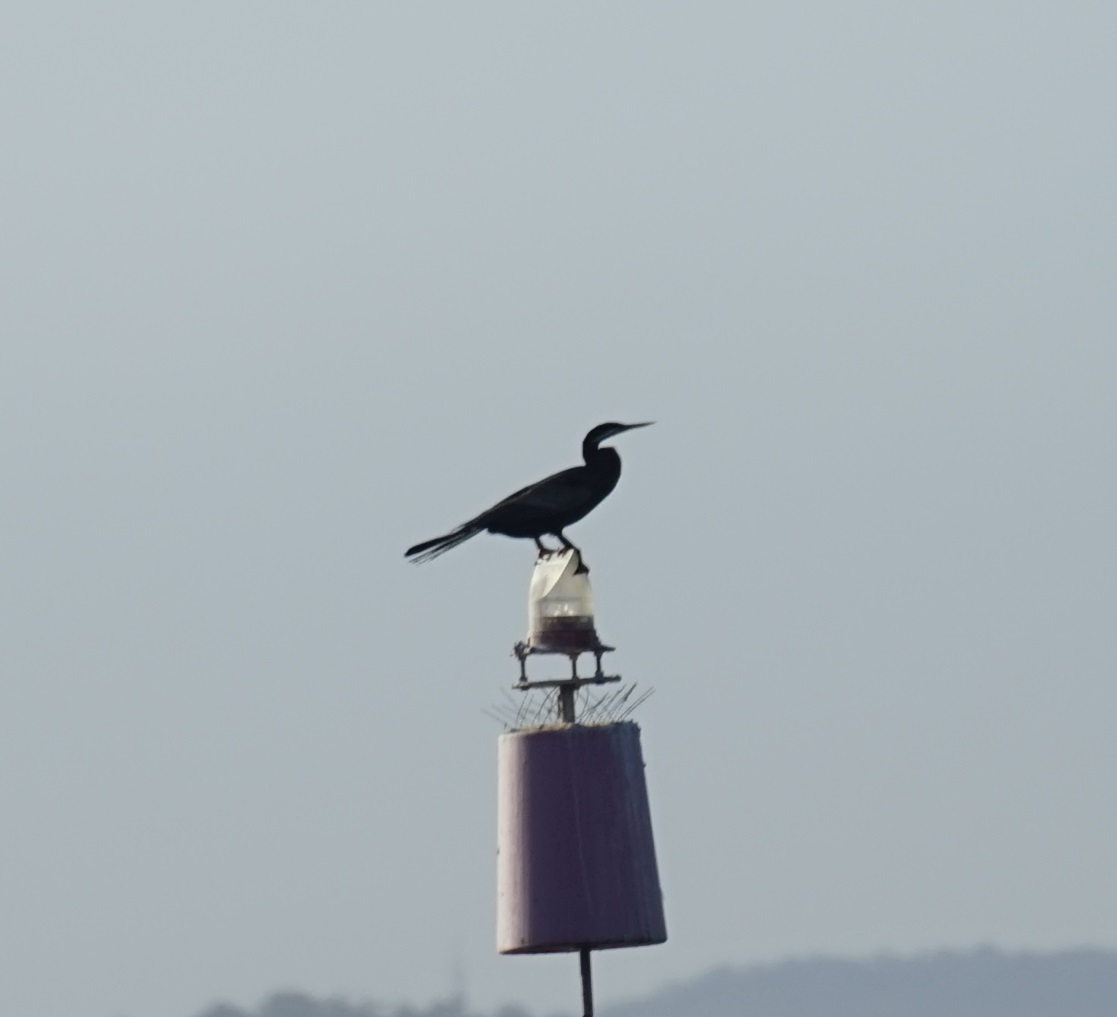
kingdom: Animalia
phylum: Chordata
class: Aves
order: Suliformes
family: Anhingidae
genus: Anhinga
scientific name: Anhinga novaehollandiae
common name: Australasian darter
